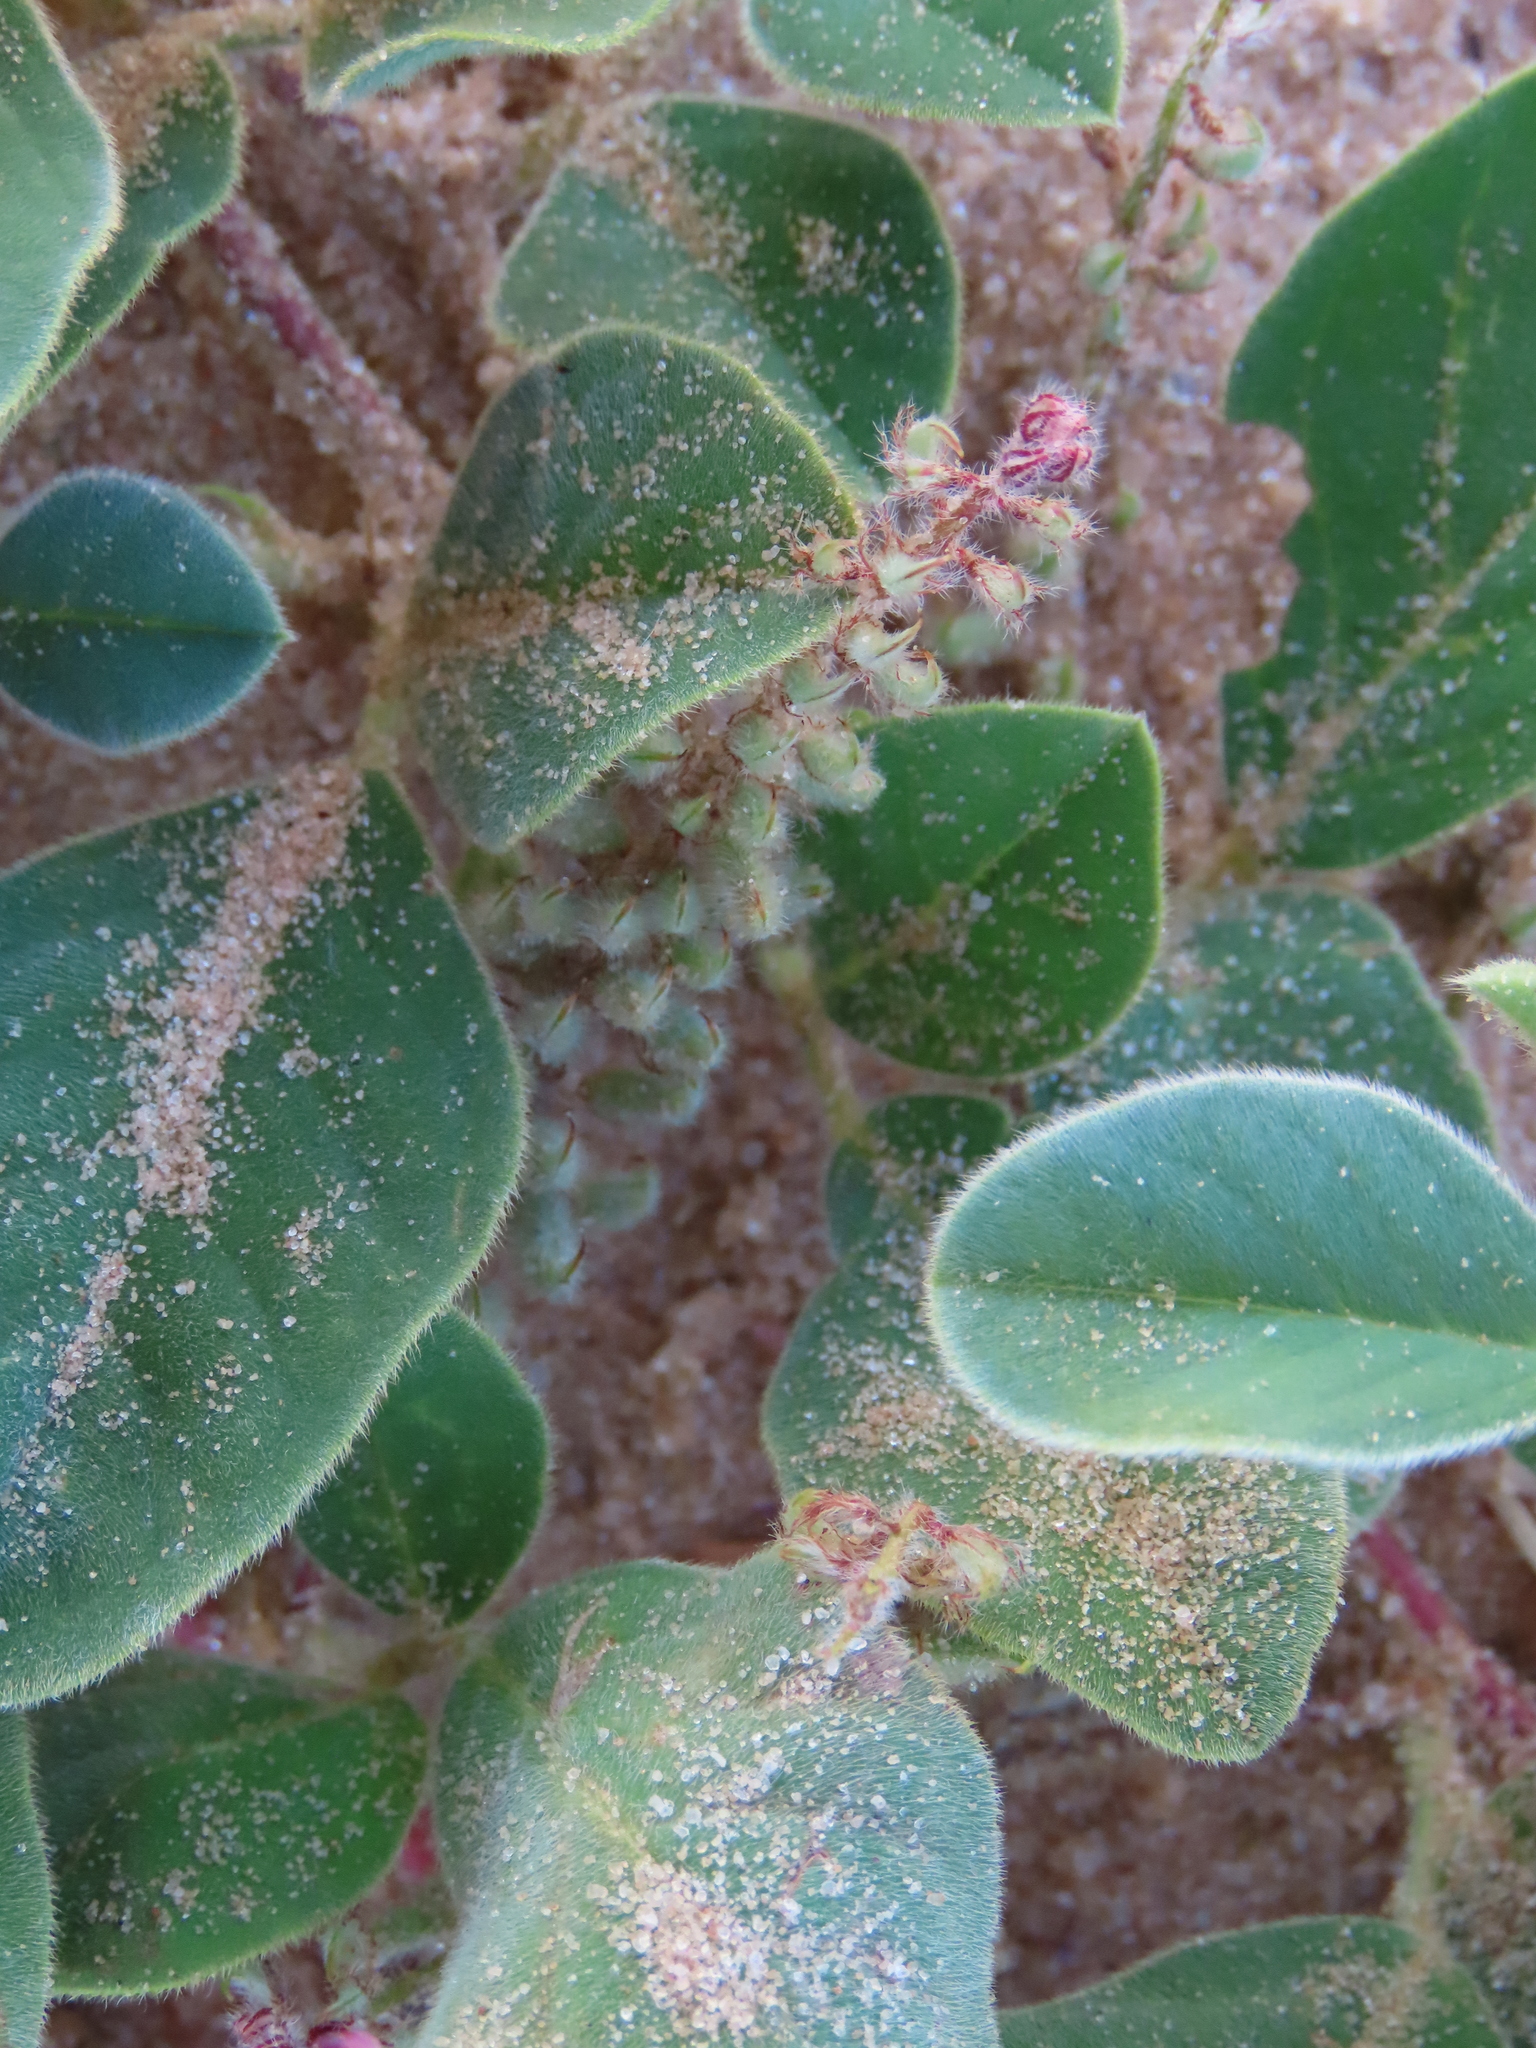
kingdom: Plantae
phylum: Tracheophyta
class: Magnoliopsida
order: Fabales
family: Fabaceae
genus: Indigofera
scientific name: Indigofera flavicans
